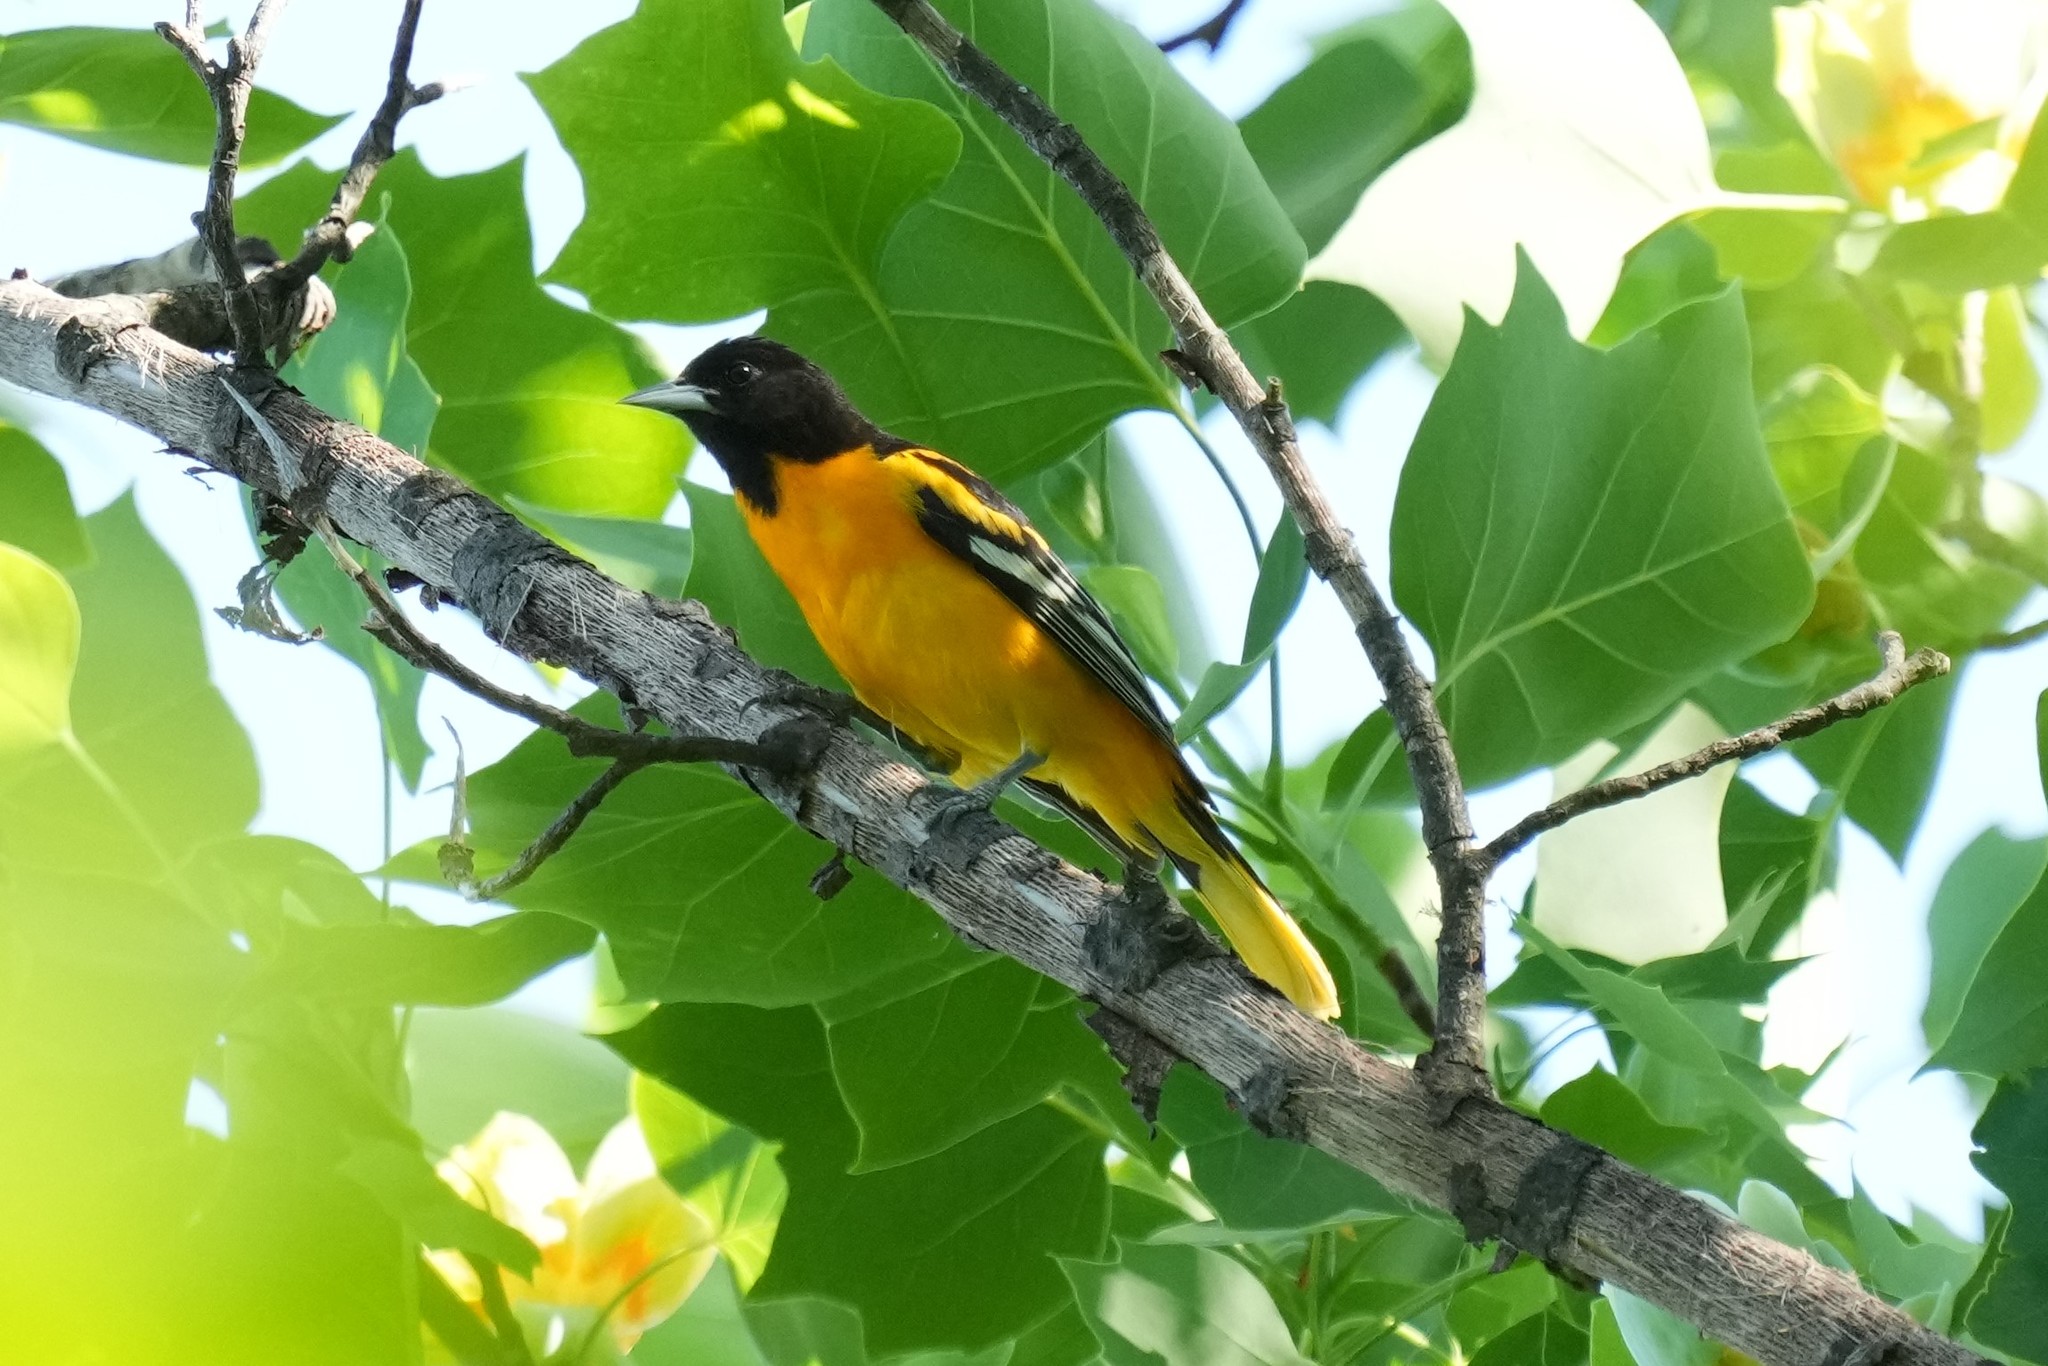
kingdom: Animalia
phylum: Chordata
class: Aves
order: Passeriformes
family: Icteridae
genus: Icterus
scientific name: Icterus galbula
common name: Baltimore oriole
